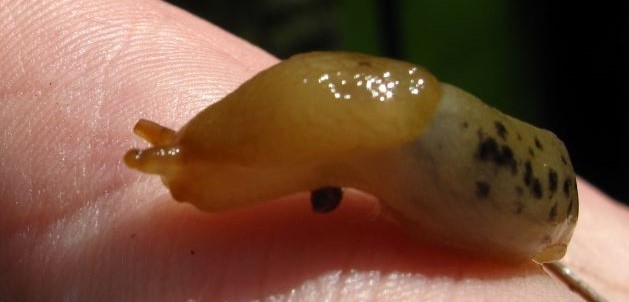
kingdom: Animalia
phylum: Mollusca
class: Gastropoda
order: Stylommatophora
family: Ariolimacidae
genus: Ariolimax
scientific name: Ariolimax columbianus
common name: Pacific banana slug
